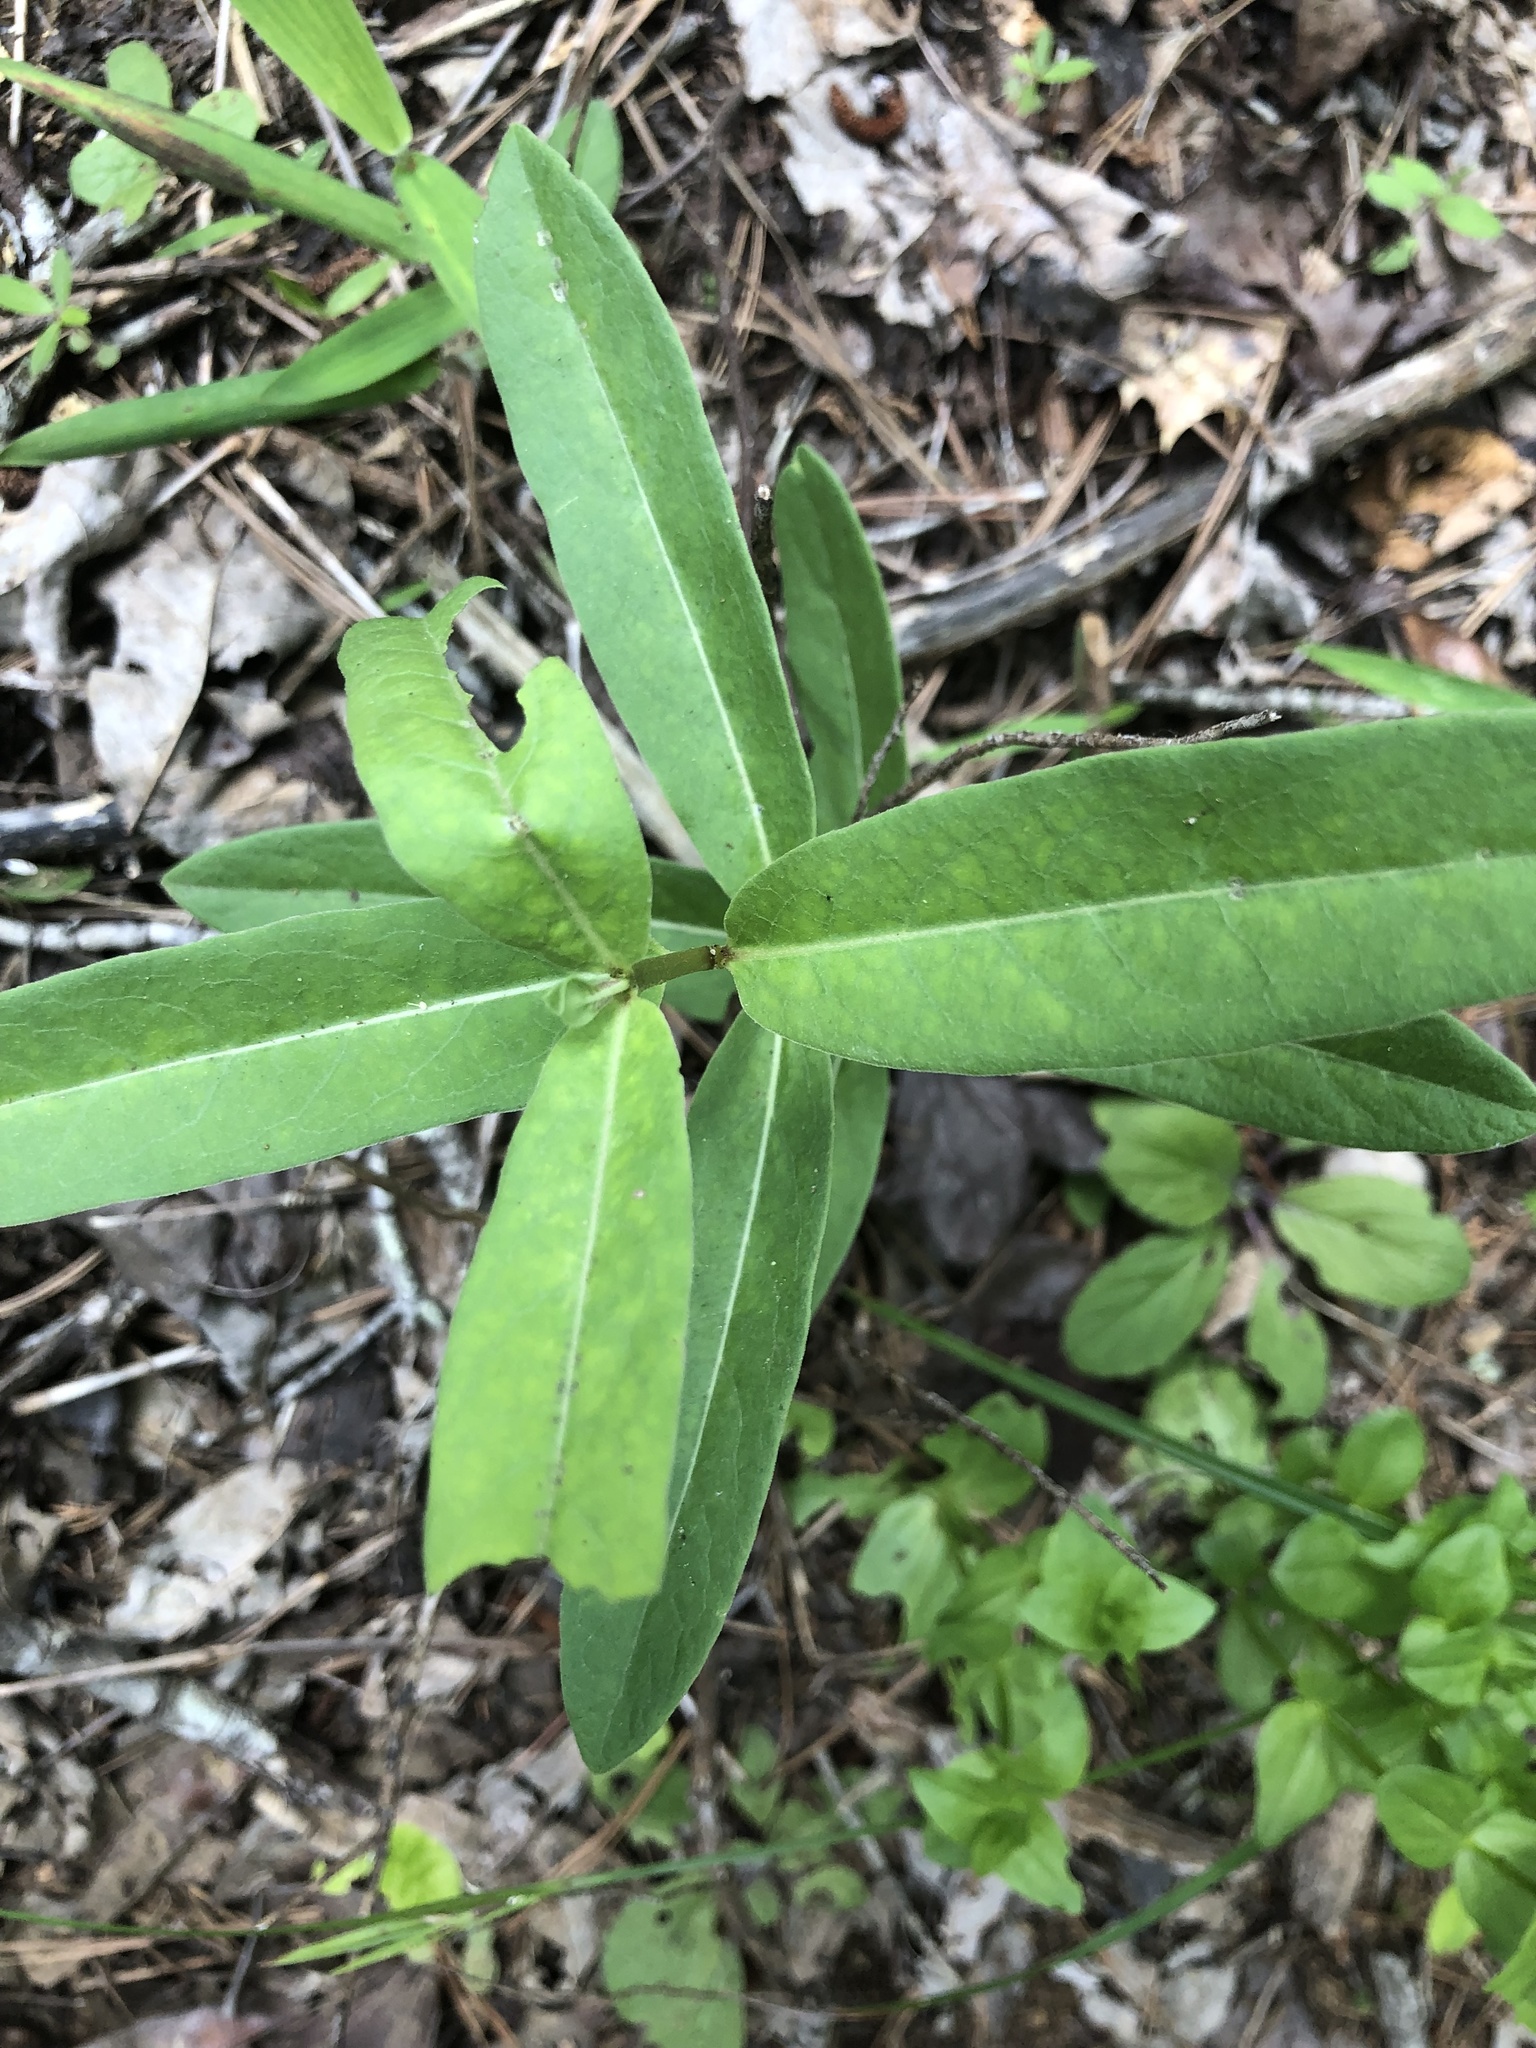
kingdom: Plantae
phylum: Tracheophyta
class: Magnoliopsida
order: Gentianales
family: Apocynaceae
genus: Asclepias
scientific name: Asclepias viridiflora
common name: Green comet milkweed
